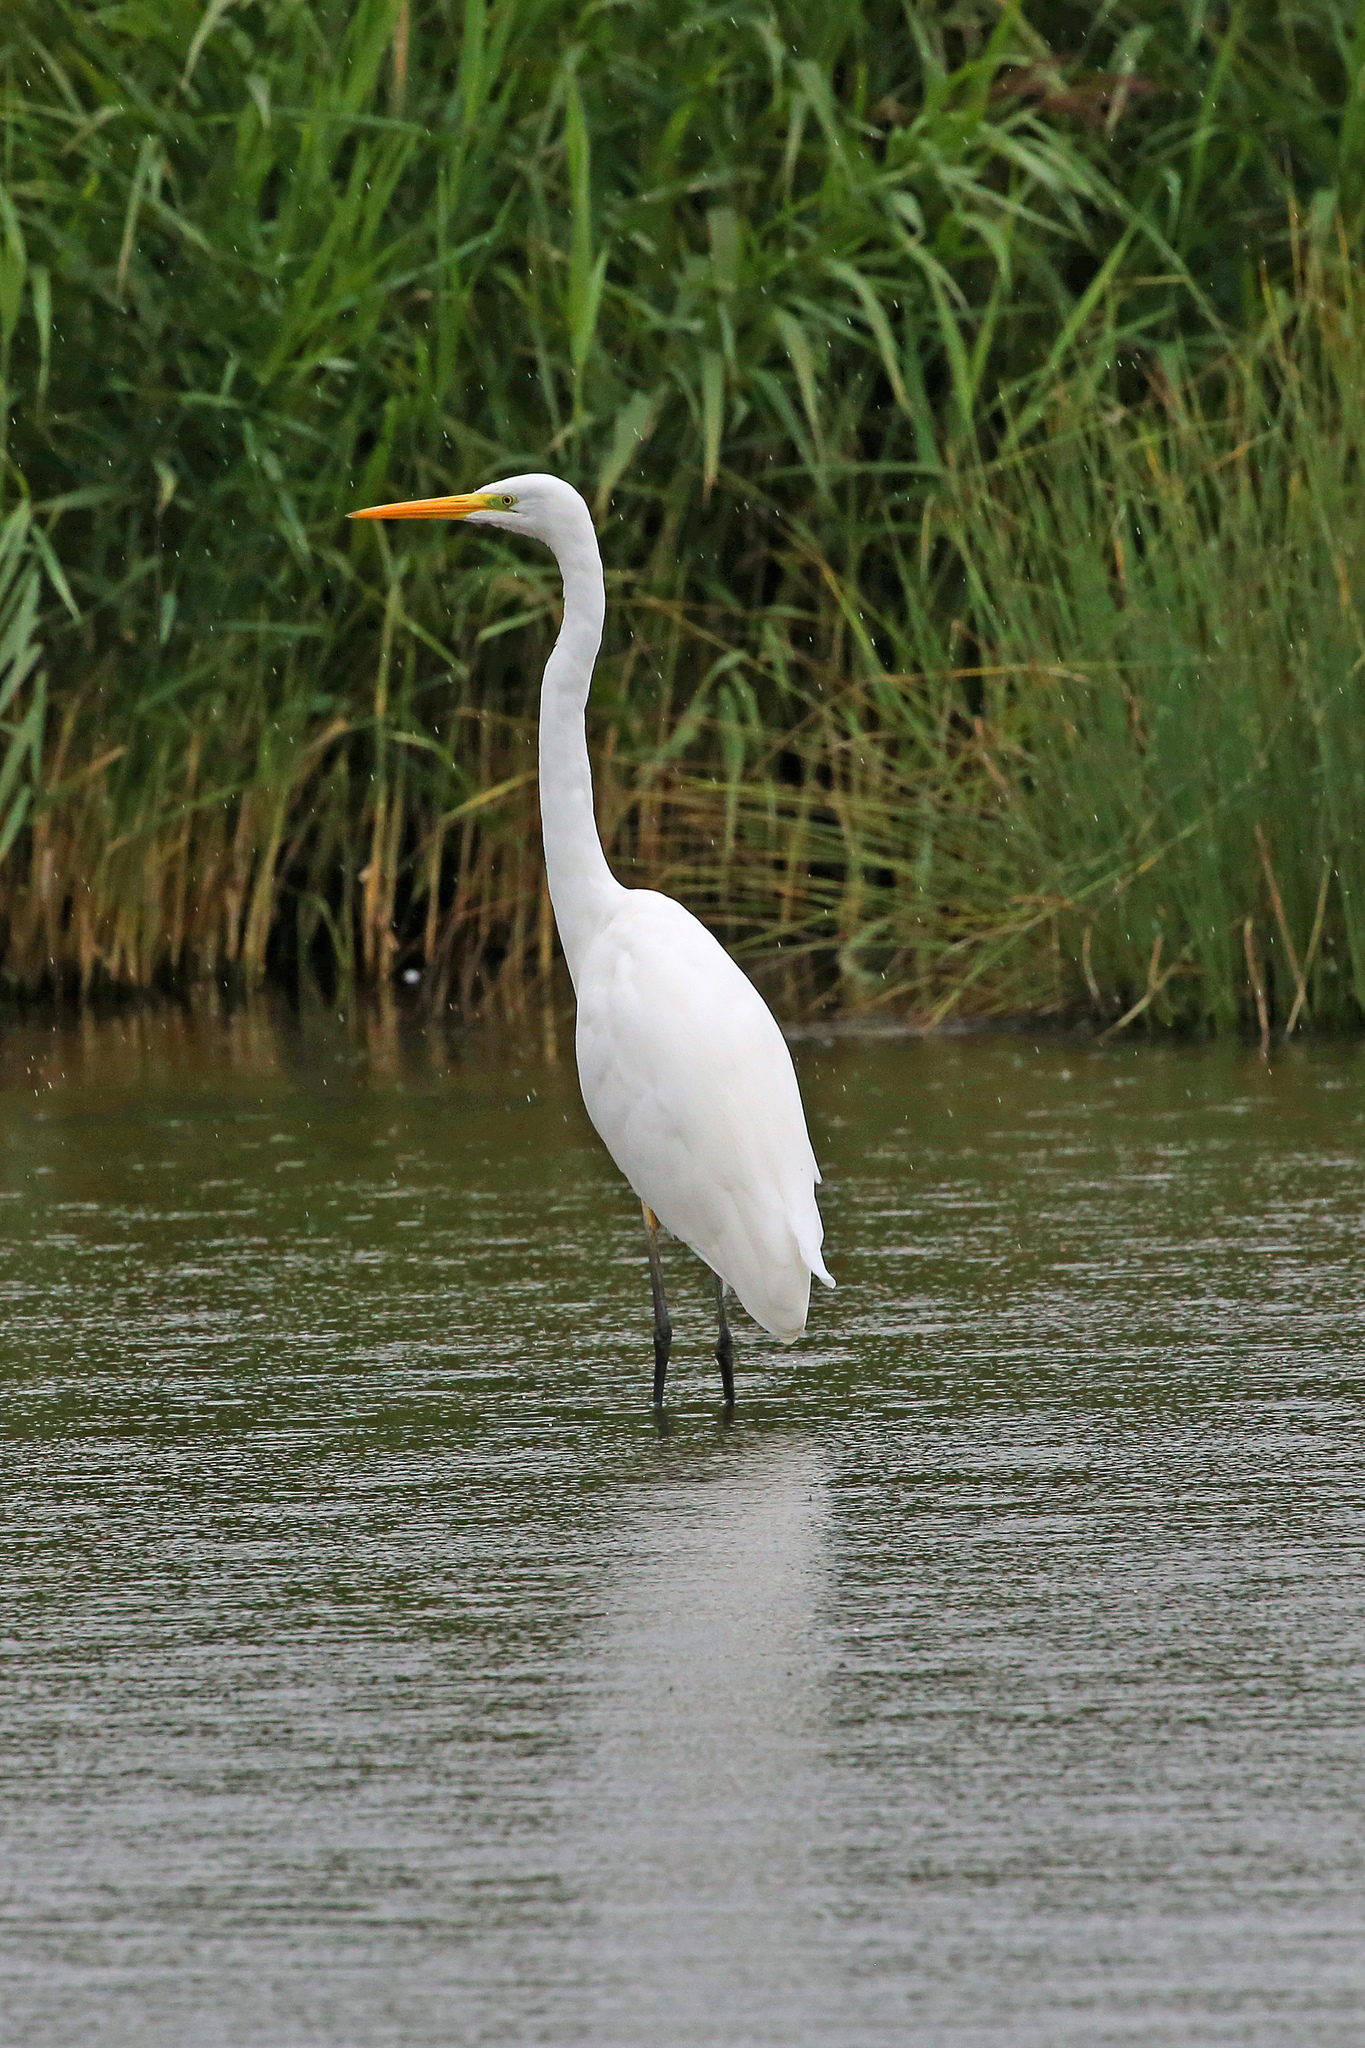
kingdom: Animalia
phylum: Chordata
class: Aves
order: Pelecaniformes
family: Ardeidae
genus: Ardea
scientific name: Ardea alba
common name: Great egret
